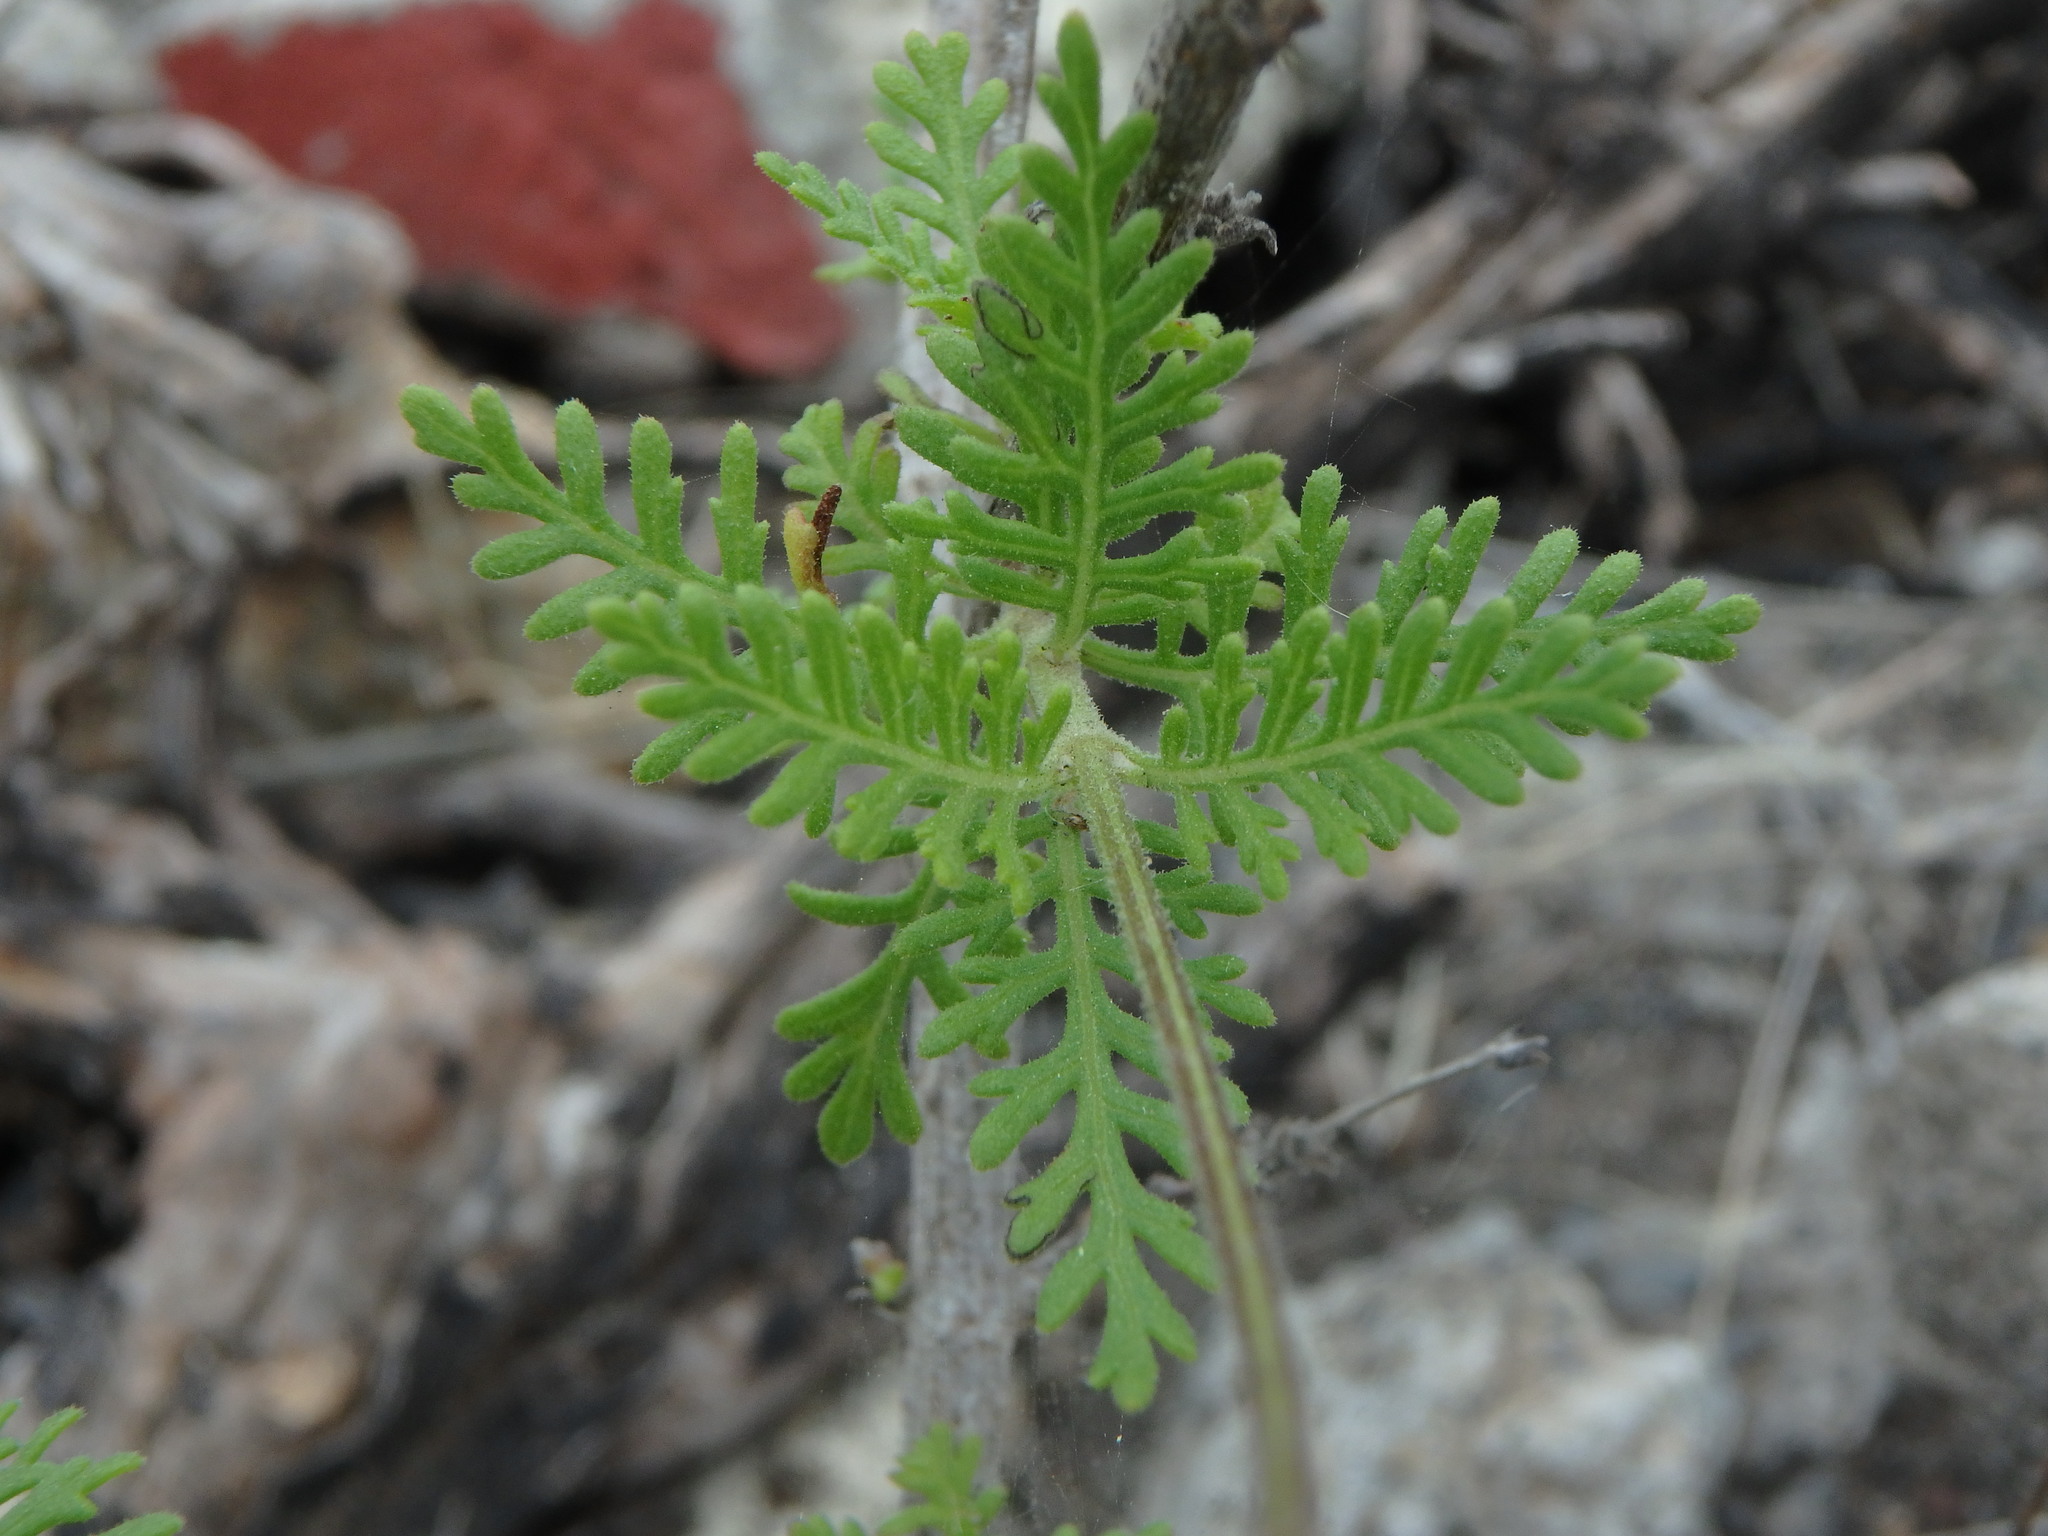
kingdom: Plantae
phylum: Tracheophyta
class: Magnoliopsida
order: Lamiales
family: Lamiaceae
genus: Lavandula
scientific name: Lavandula canariensis
